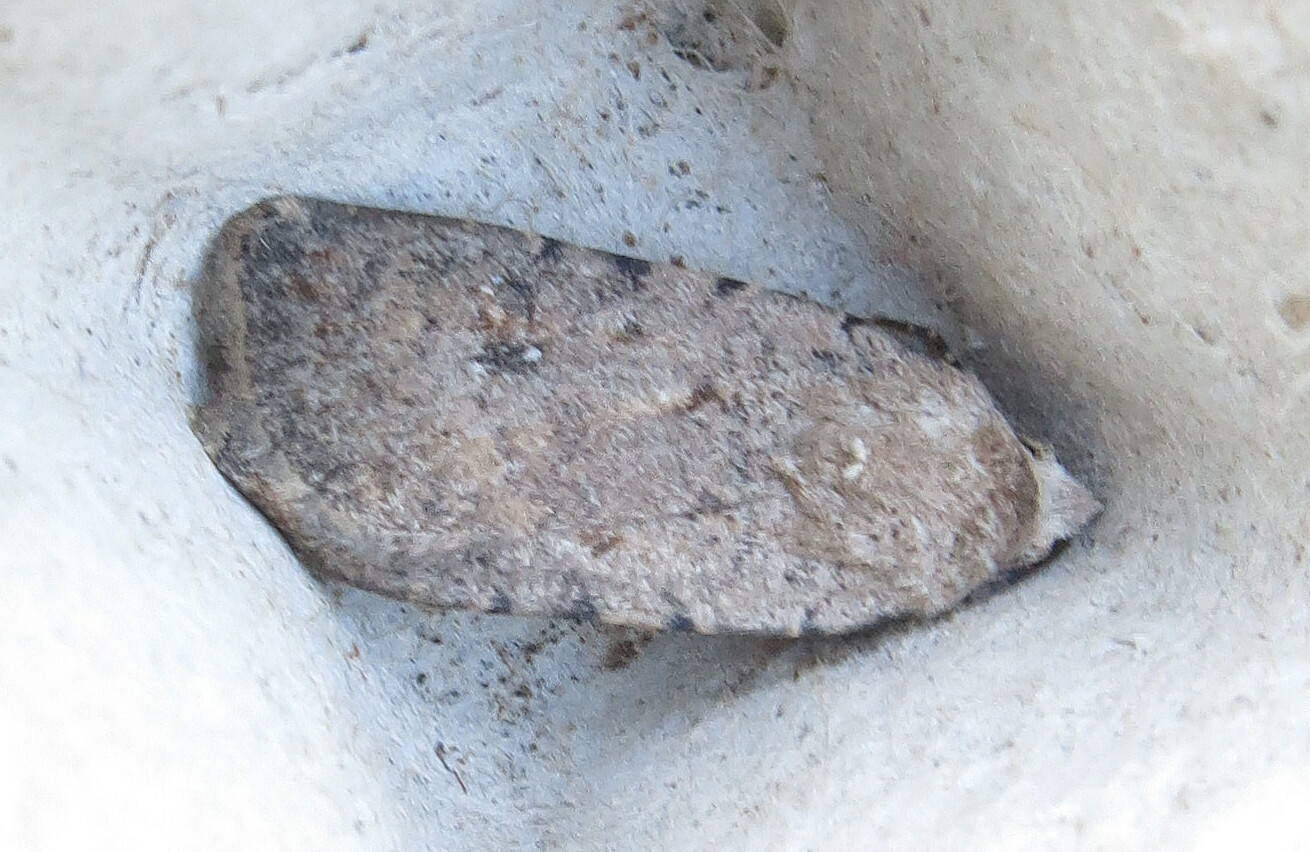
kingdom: Animalia
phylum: Arthropoda
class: Insecta
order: Lepidoptera
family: Noctuidae
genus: Caradrina
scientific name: Caradrina clavipalpis
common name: Pale mottled willow
